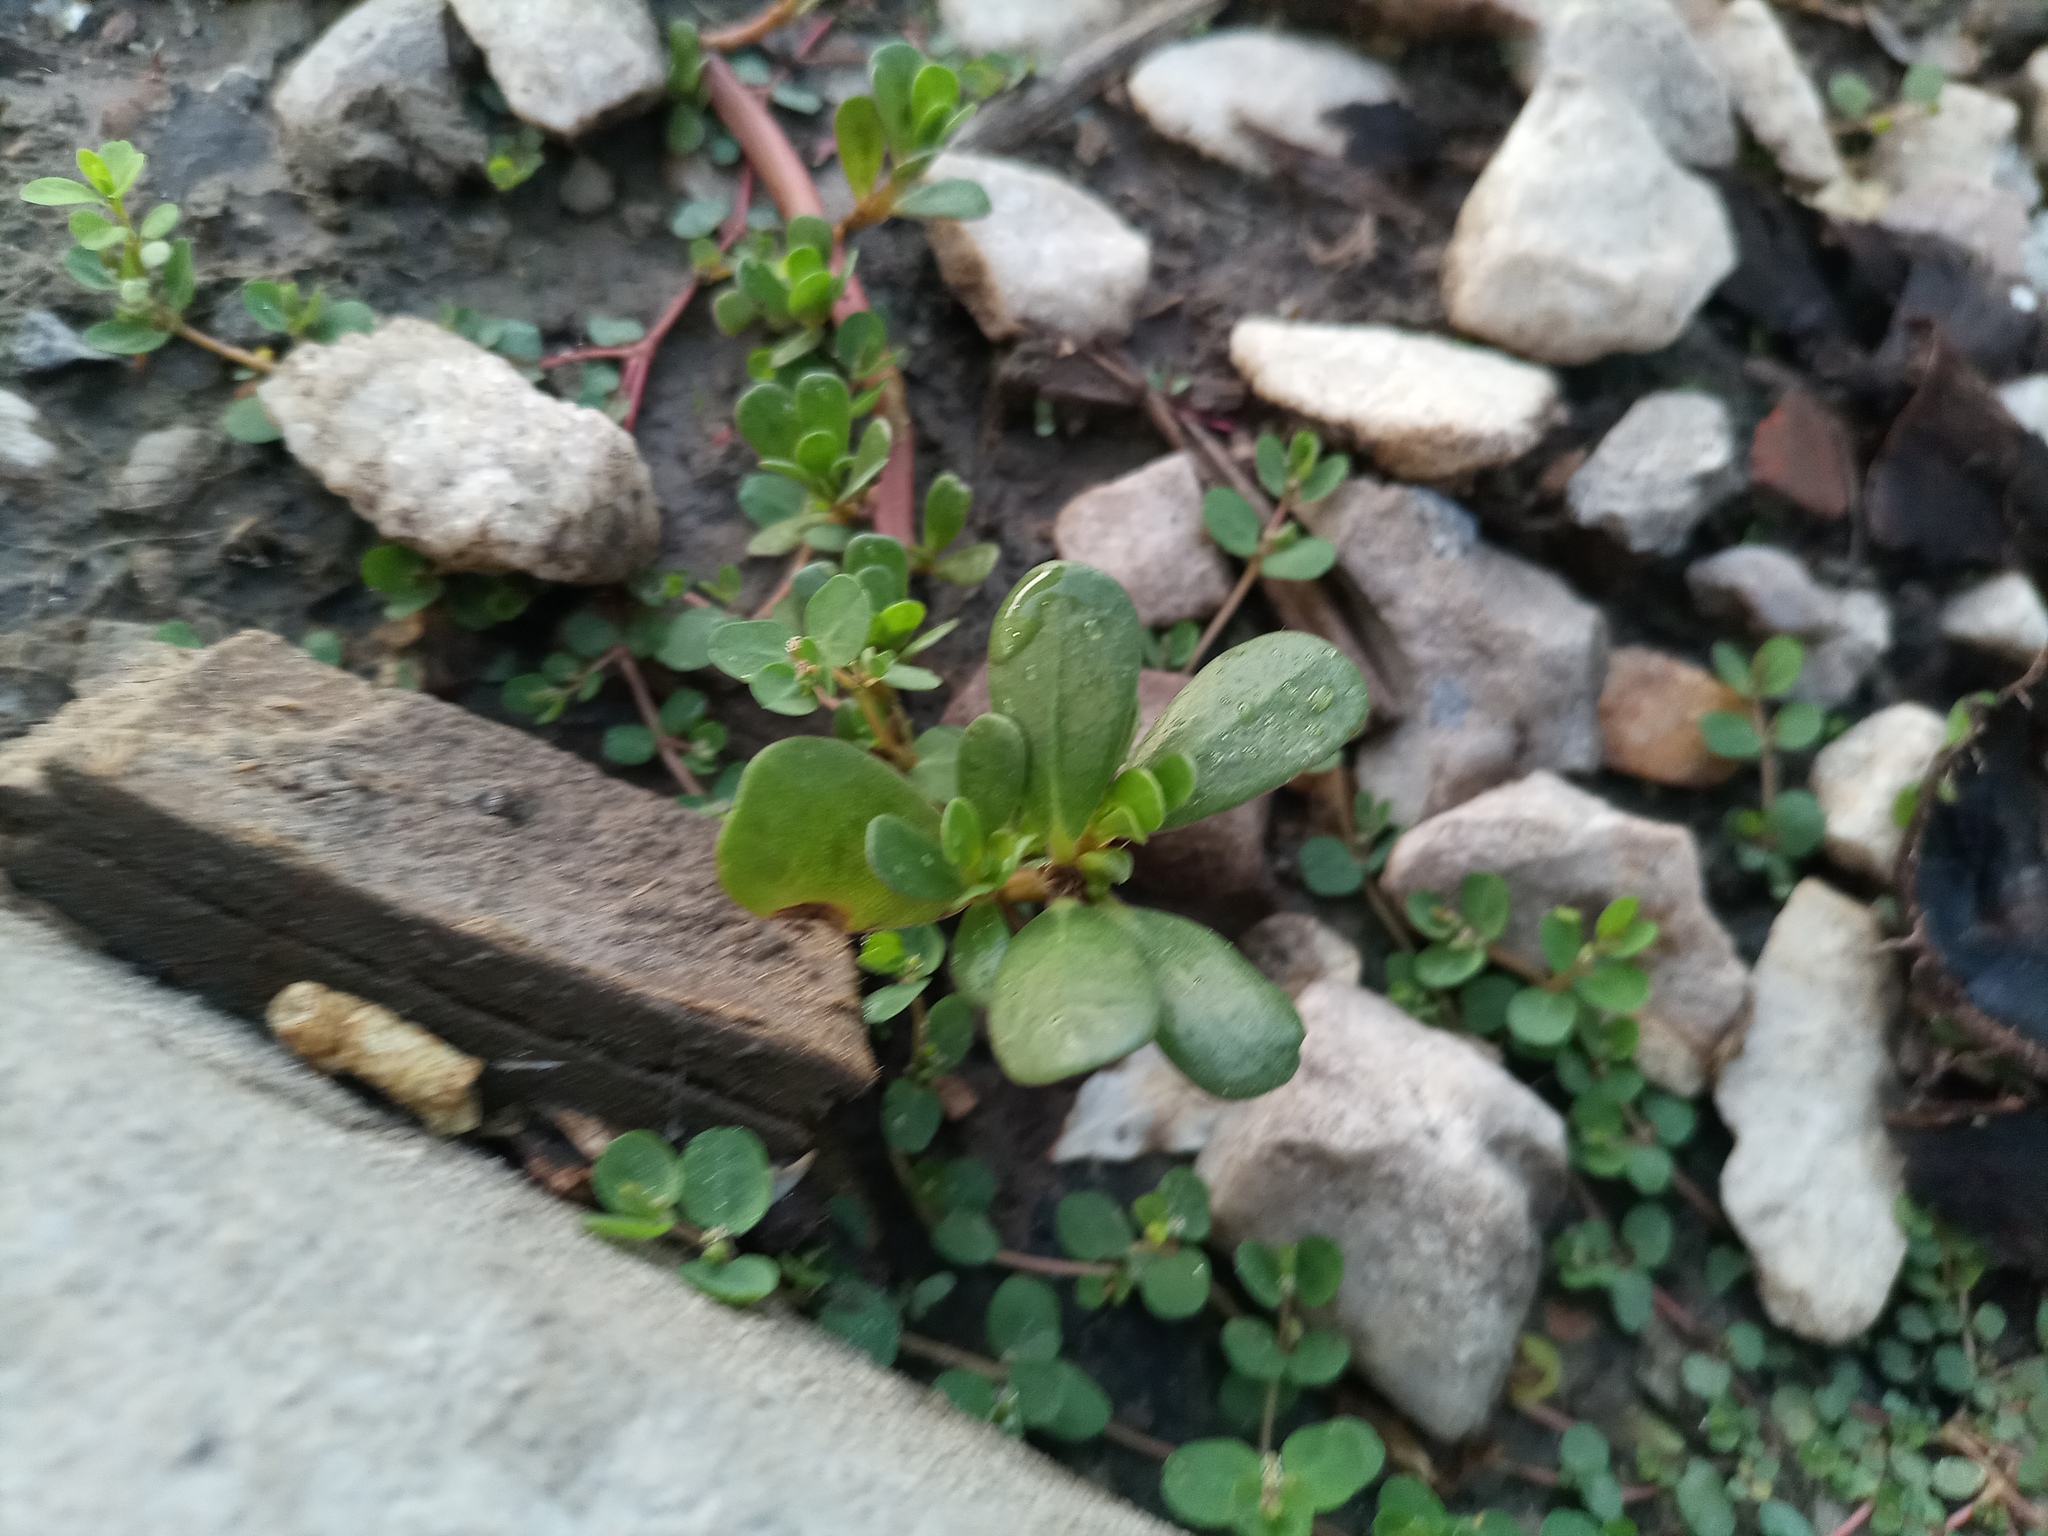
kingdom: Plantae
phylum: Tracheophyta
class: Magnoliopsida
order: Caryophyllales
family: Portulacaceae
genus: Portulaca
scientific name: Portulaca oleracea
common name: Common purslane
